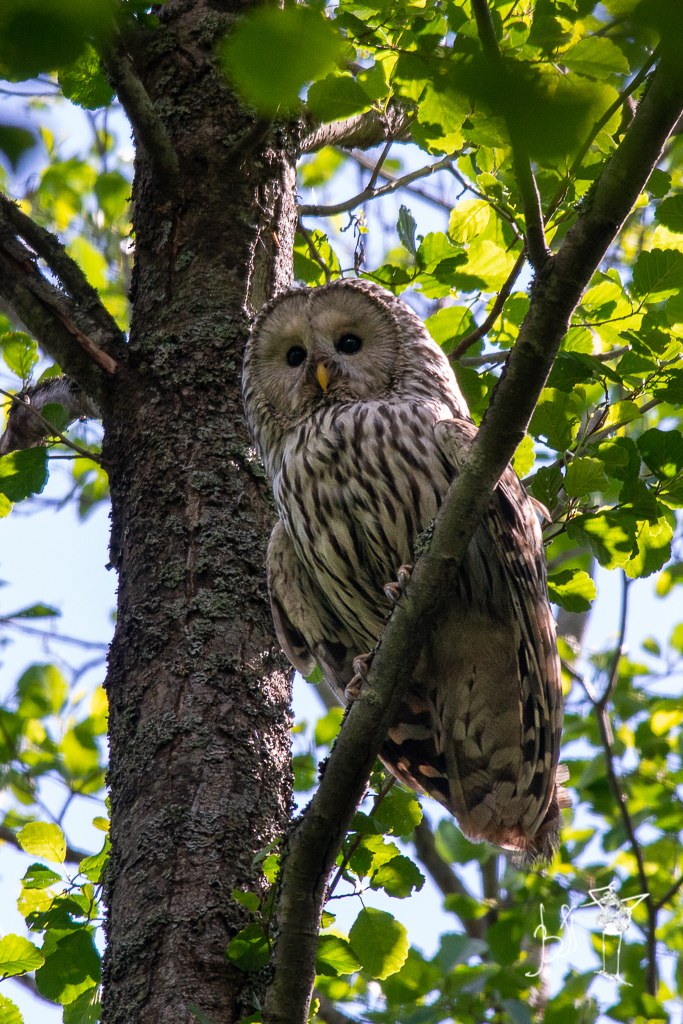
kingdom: Animalia
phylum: Chordata
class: Aves
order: Strigiformes
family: Strigidae
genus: Strix
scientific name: Strix uralensis
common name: Ural owl
